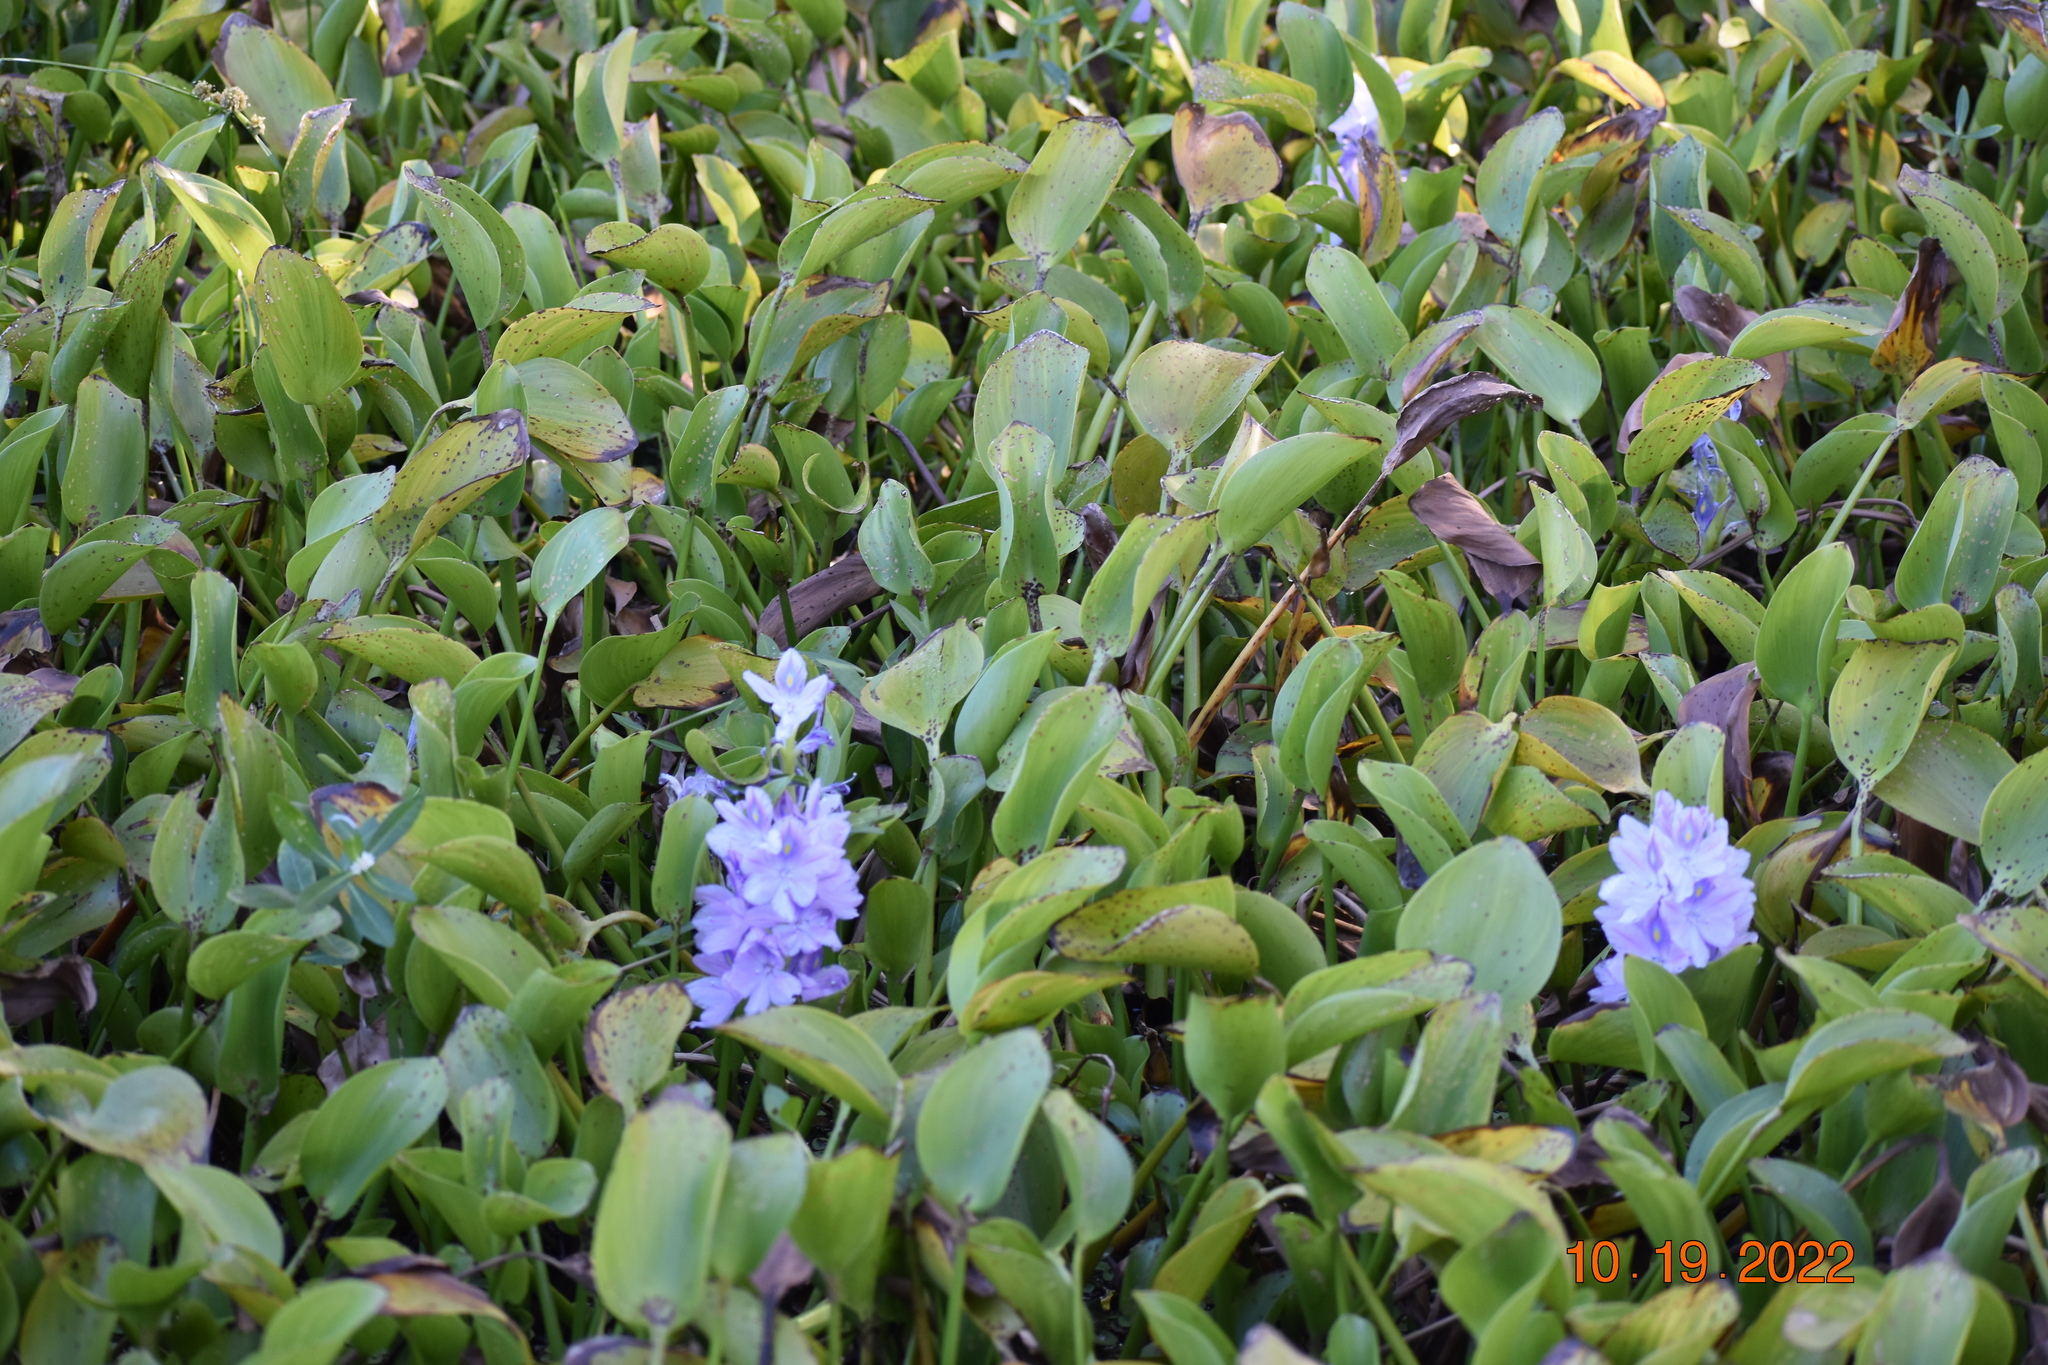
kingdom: Plantae
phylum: Tracheophyta
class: Liliopsida
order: Commelinales
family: Pontederiaceae
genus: Pontederia
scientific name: Pontederia crassipes
